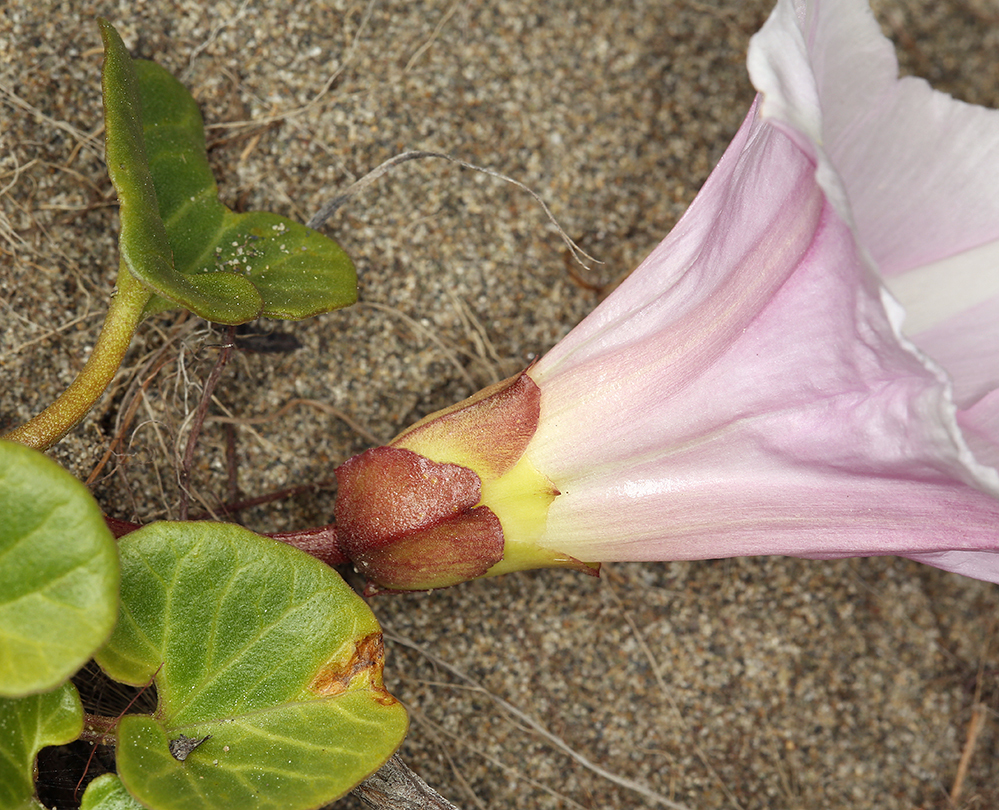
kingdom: Plantae
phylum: Tracheophyta
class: Magnoliopsida
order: Solanales
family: Convolvulaceae
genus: Calystegia
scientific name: Calystegia soldanella
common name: Sea bindweed
